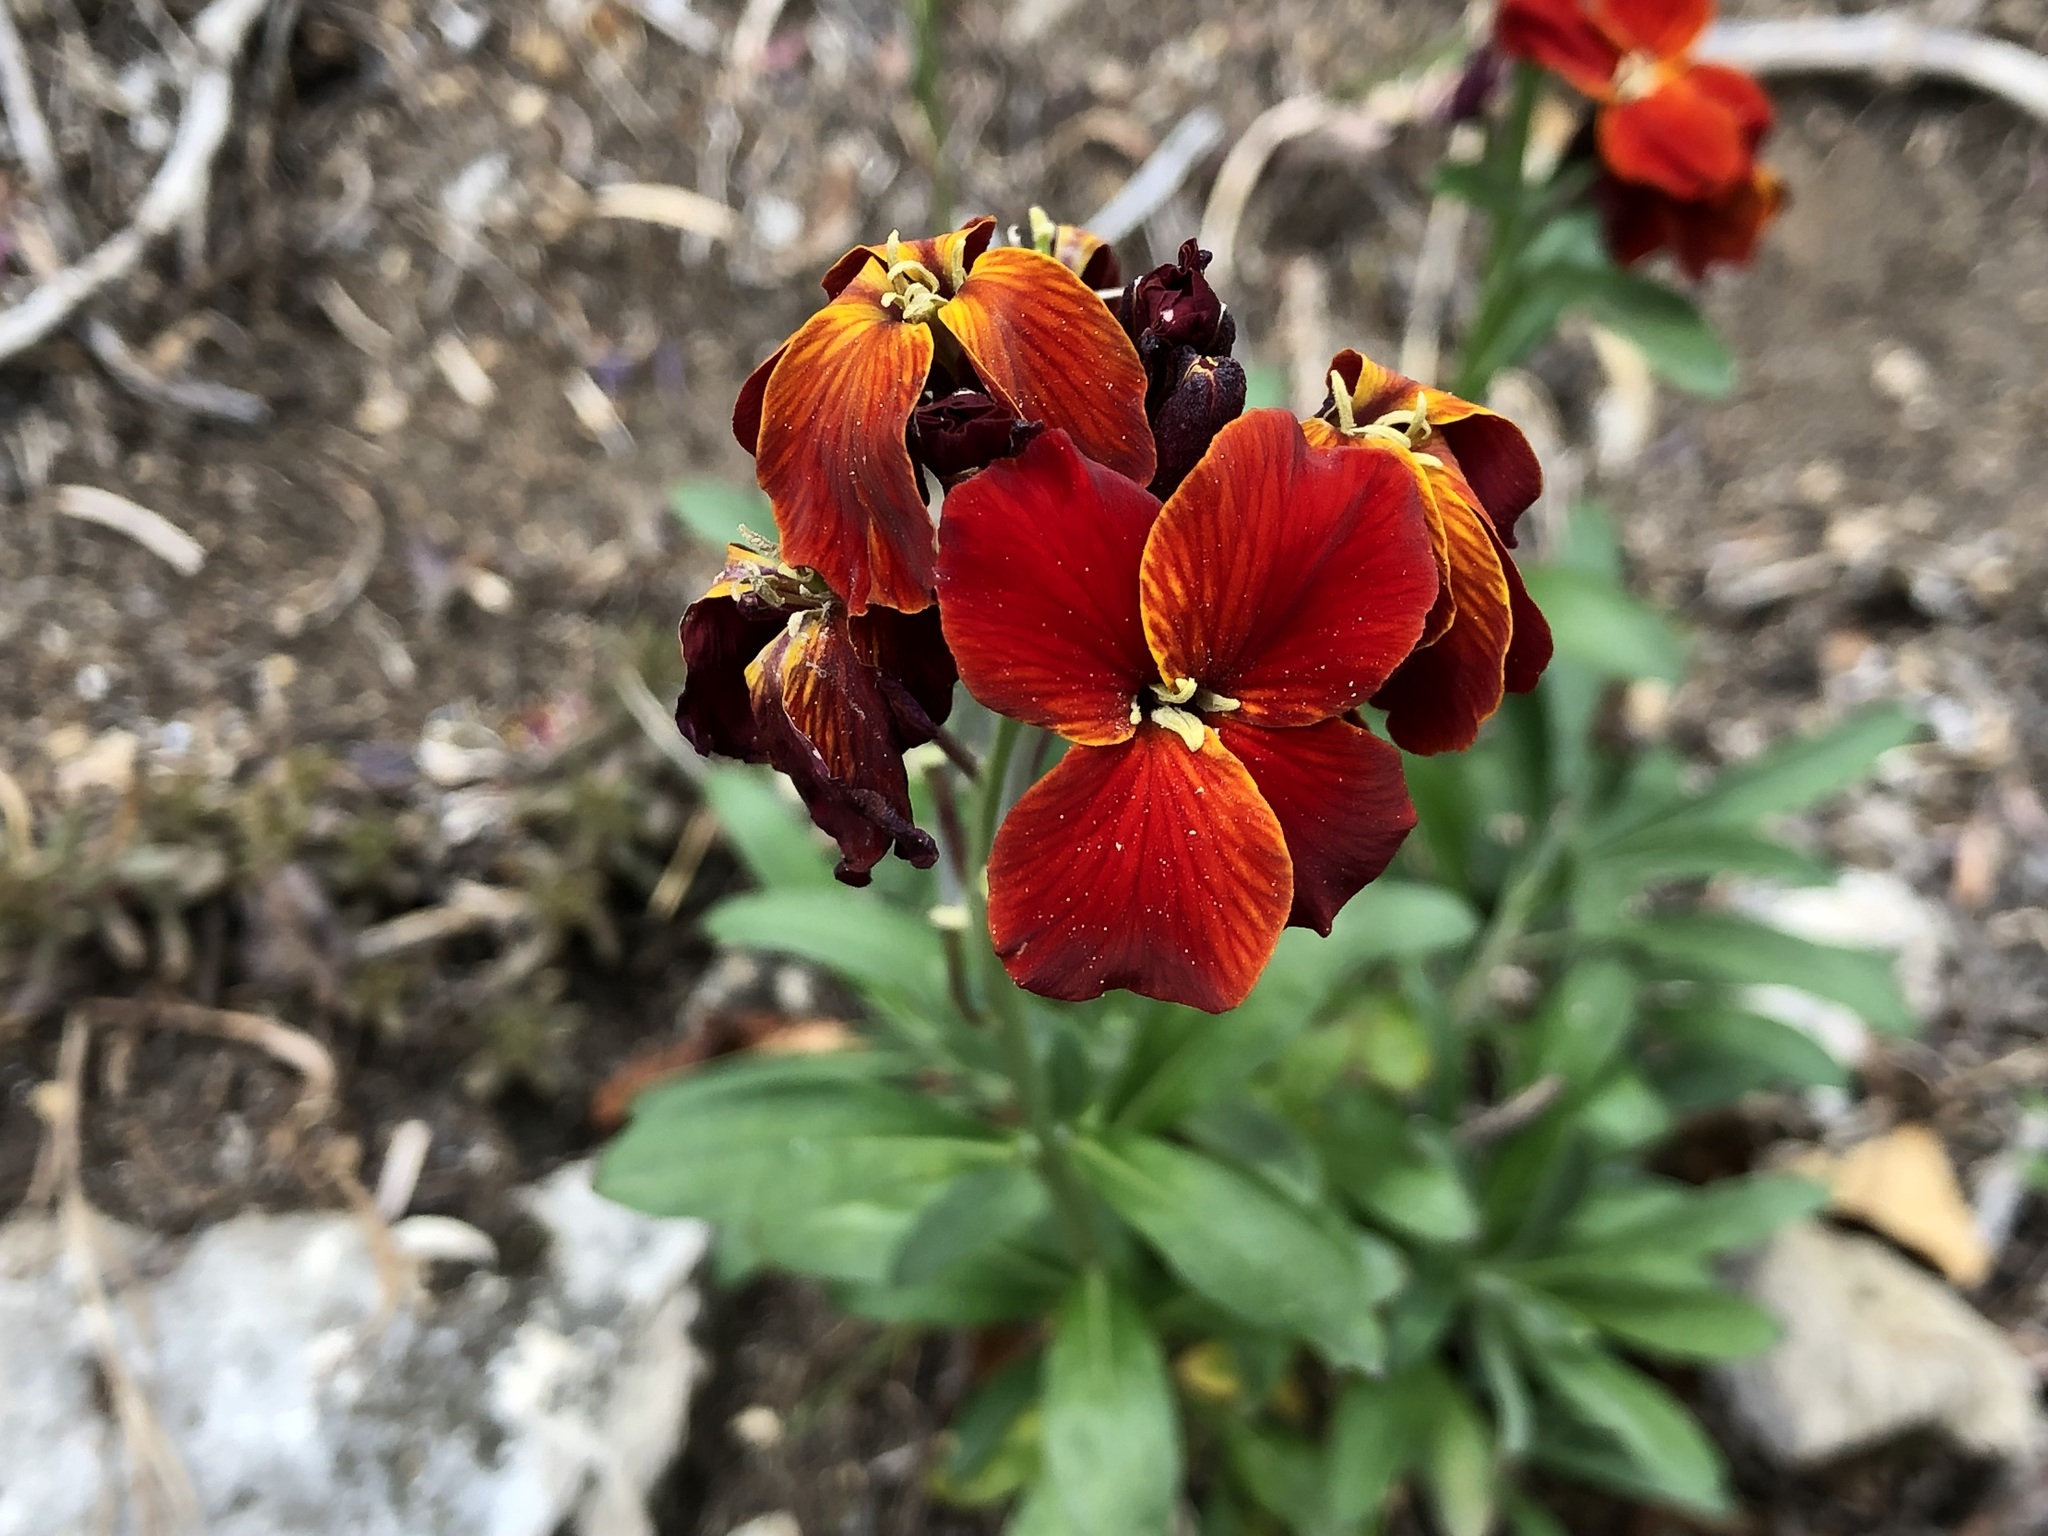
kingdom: Plantae
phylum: Tracheophyta
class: Magnoliopsida
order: Brassicales
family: Brassicaceae
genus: Erysimum
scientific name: Erysimum cheiri
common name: Wallflower
